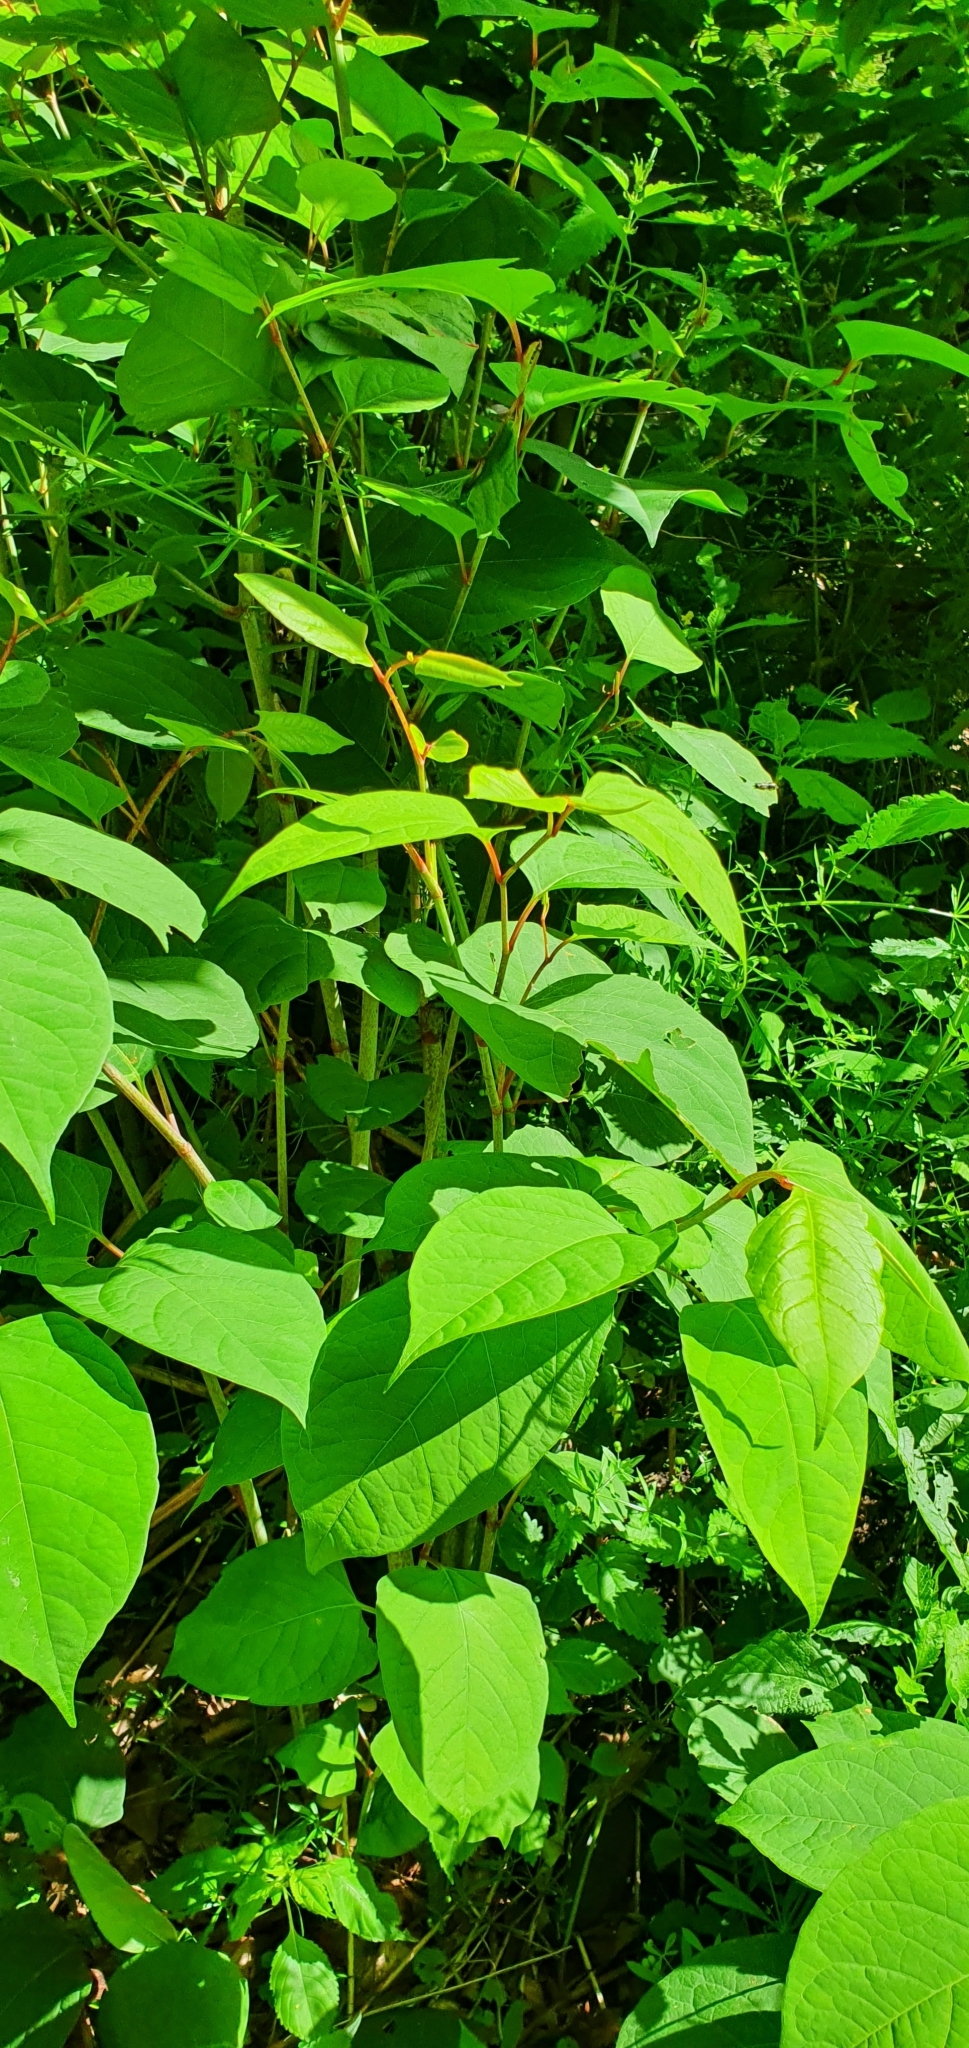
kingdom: Plantae
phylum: Tracheophyta
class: Magnoliopsida
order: Caryophyllales
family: Polygonaceae
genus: Reynoutria
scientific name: Reynoutria japonica
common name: Japanese knotweed
